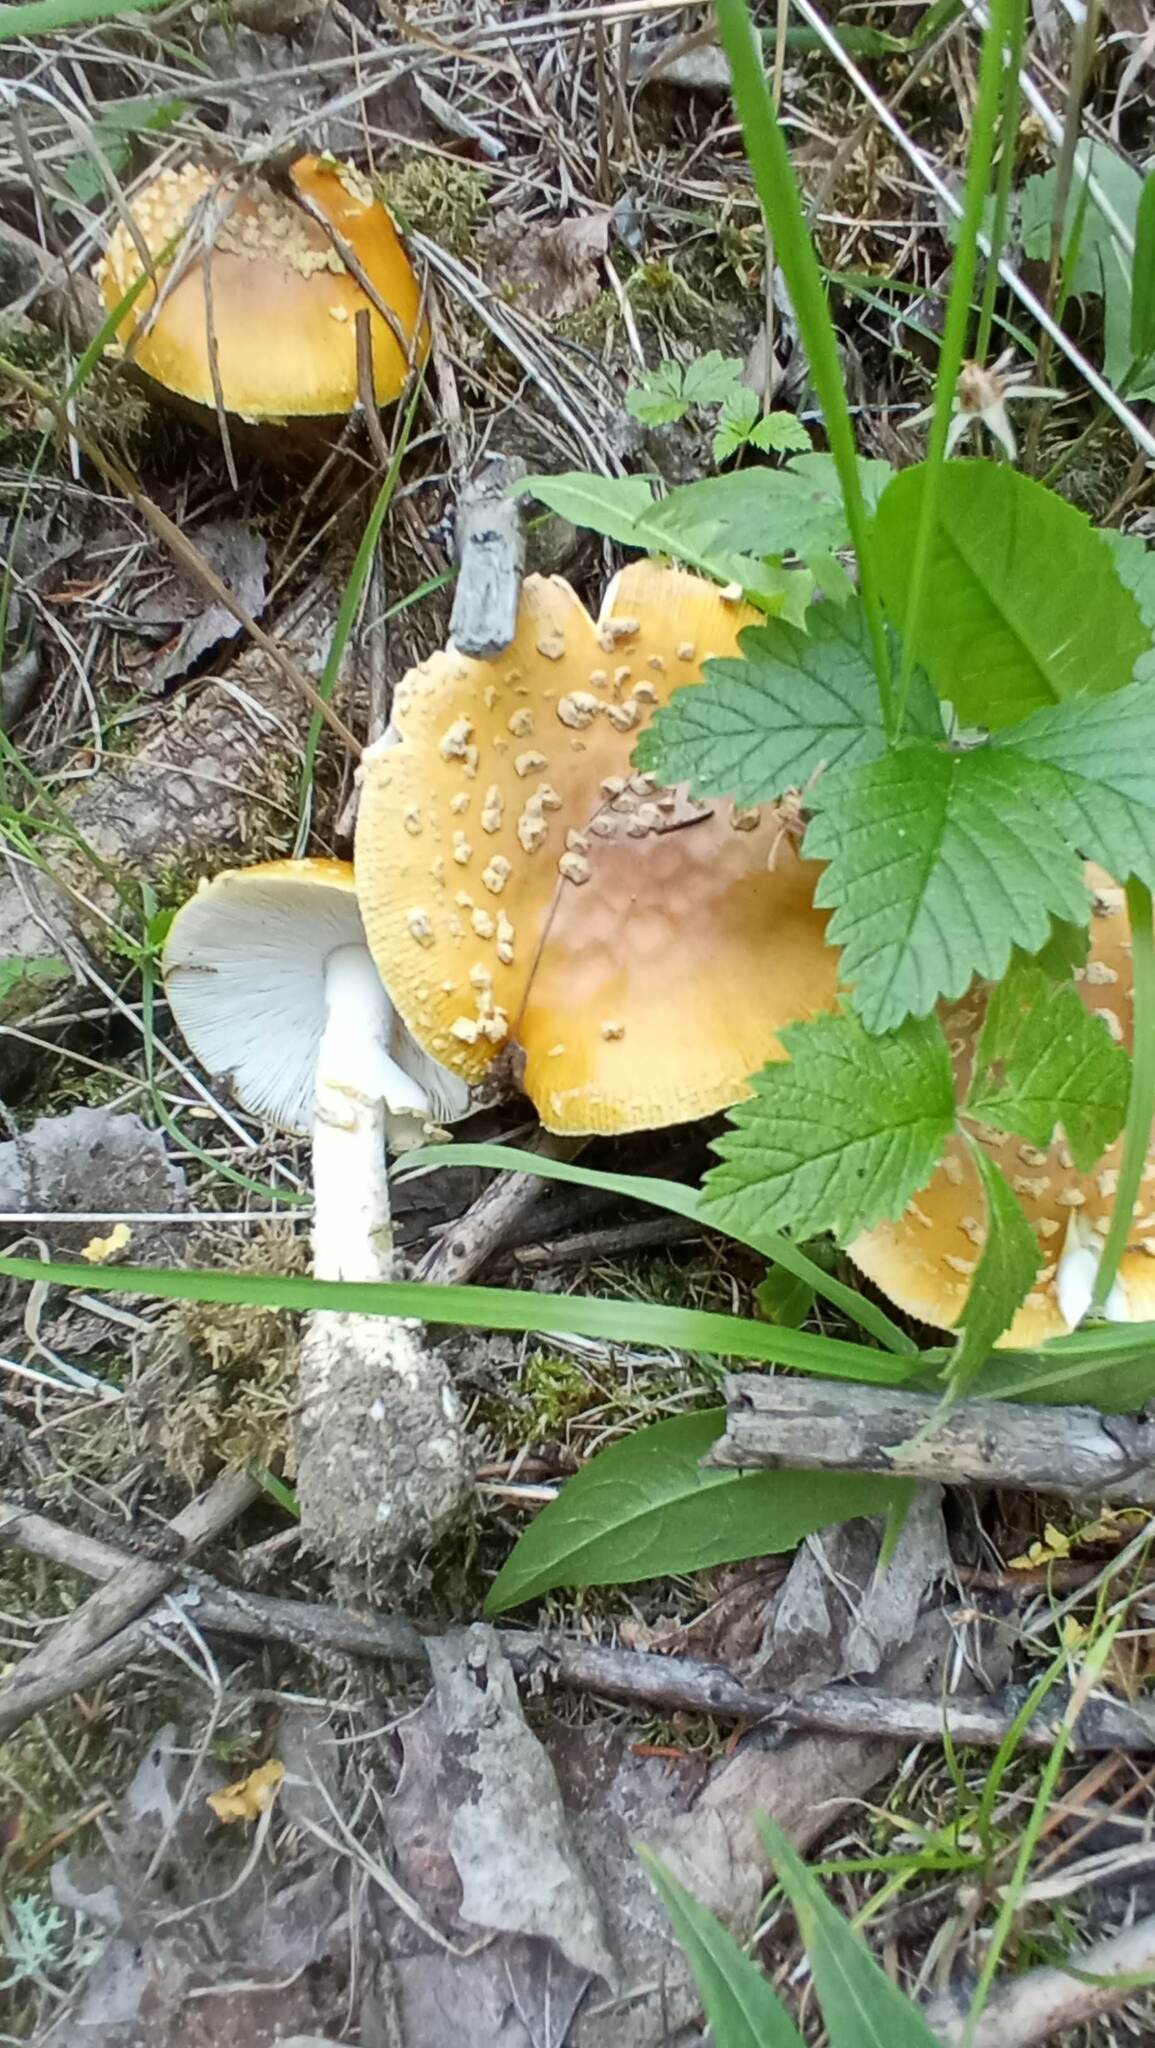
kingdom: Fungi
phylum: Basidiomycota
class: Agaricomycetes
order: Agaricales
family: Amanitaceae
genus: Amanita
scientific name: Amanita regalis
